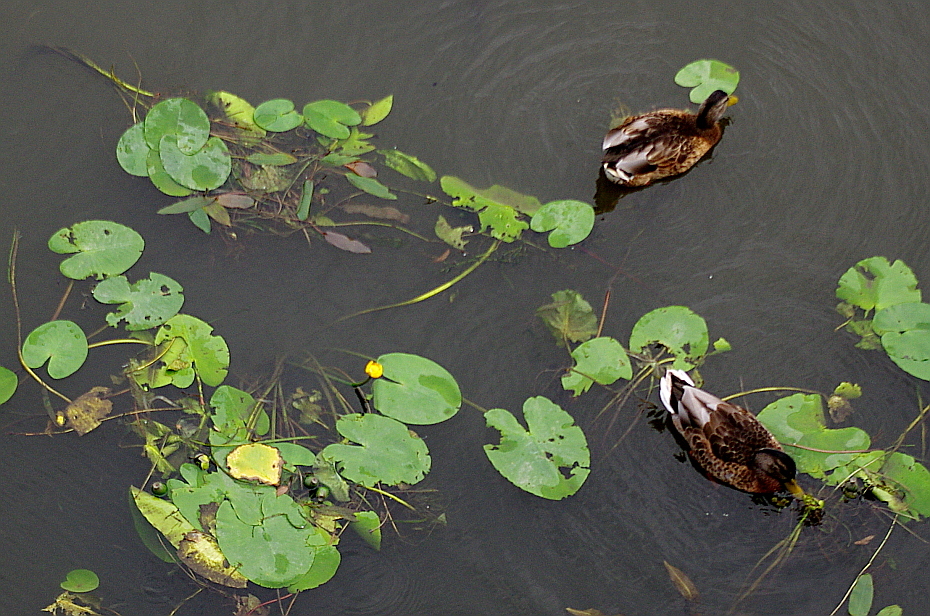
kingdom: Plantae
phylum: Tracheophyta
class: Magnoliopsida
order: Nymphaeales
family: Nymphaeaceae
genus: Nuphar
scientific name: Nuphar lutea
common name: Yellow water-lily
